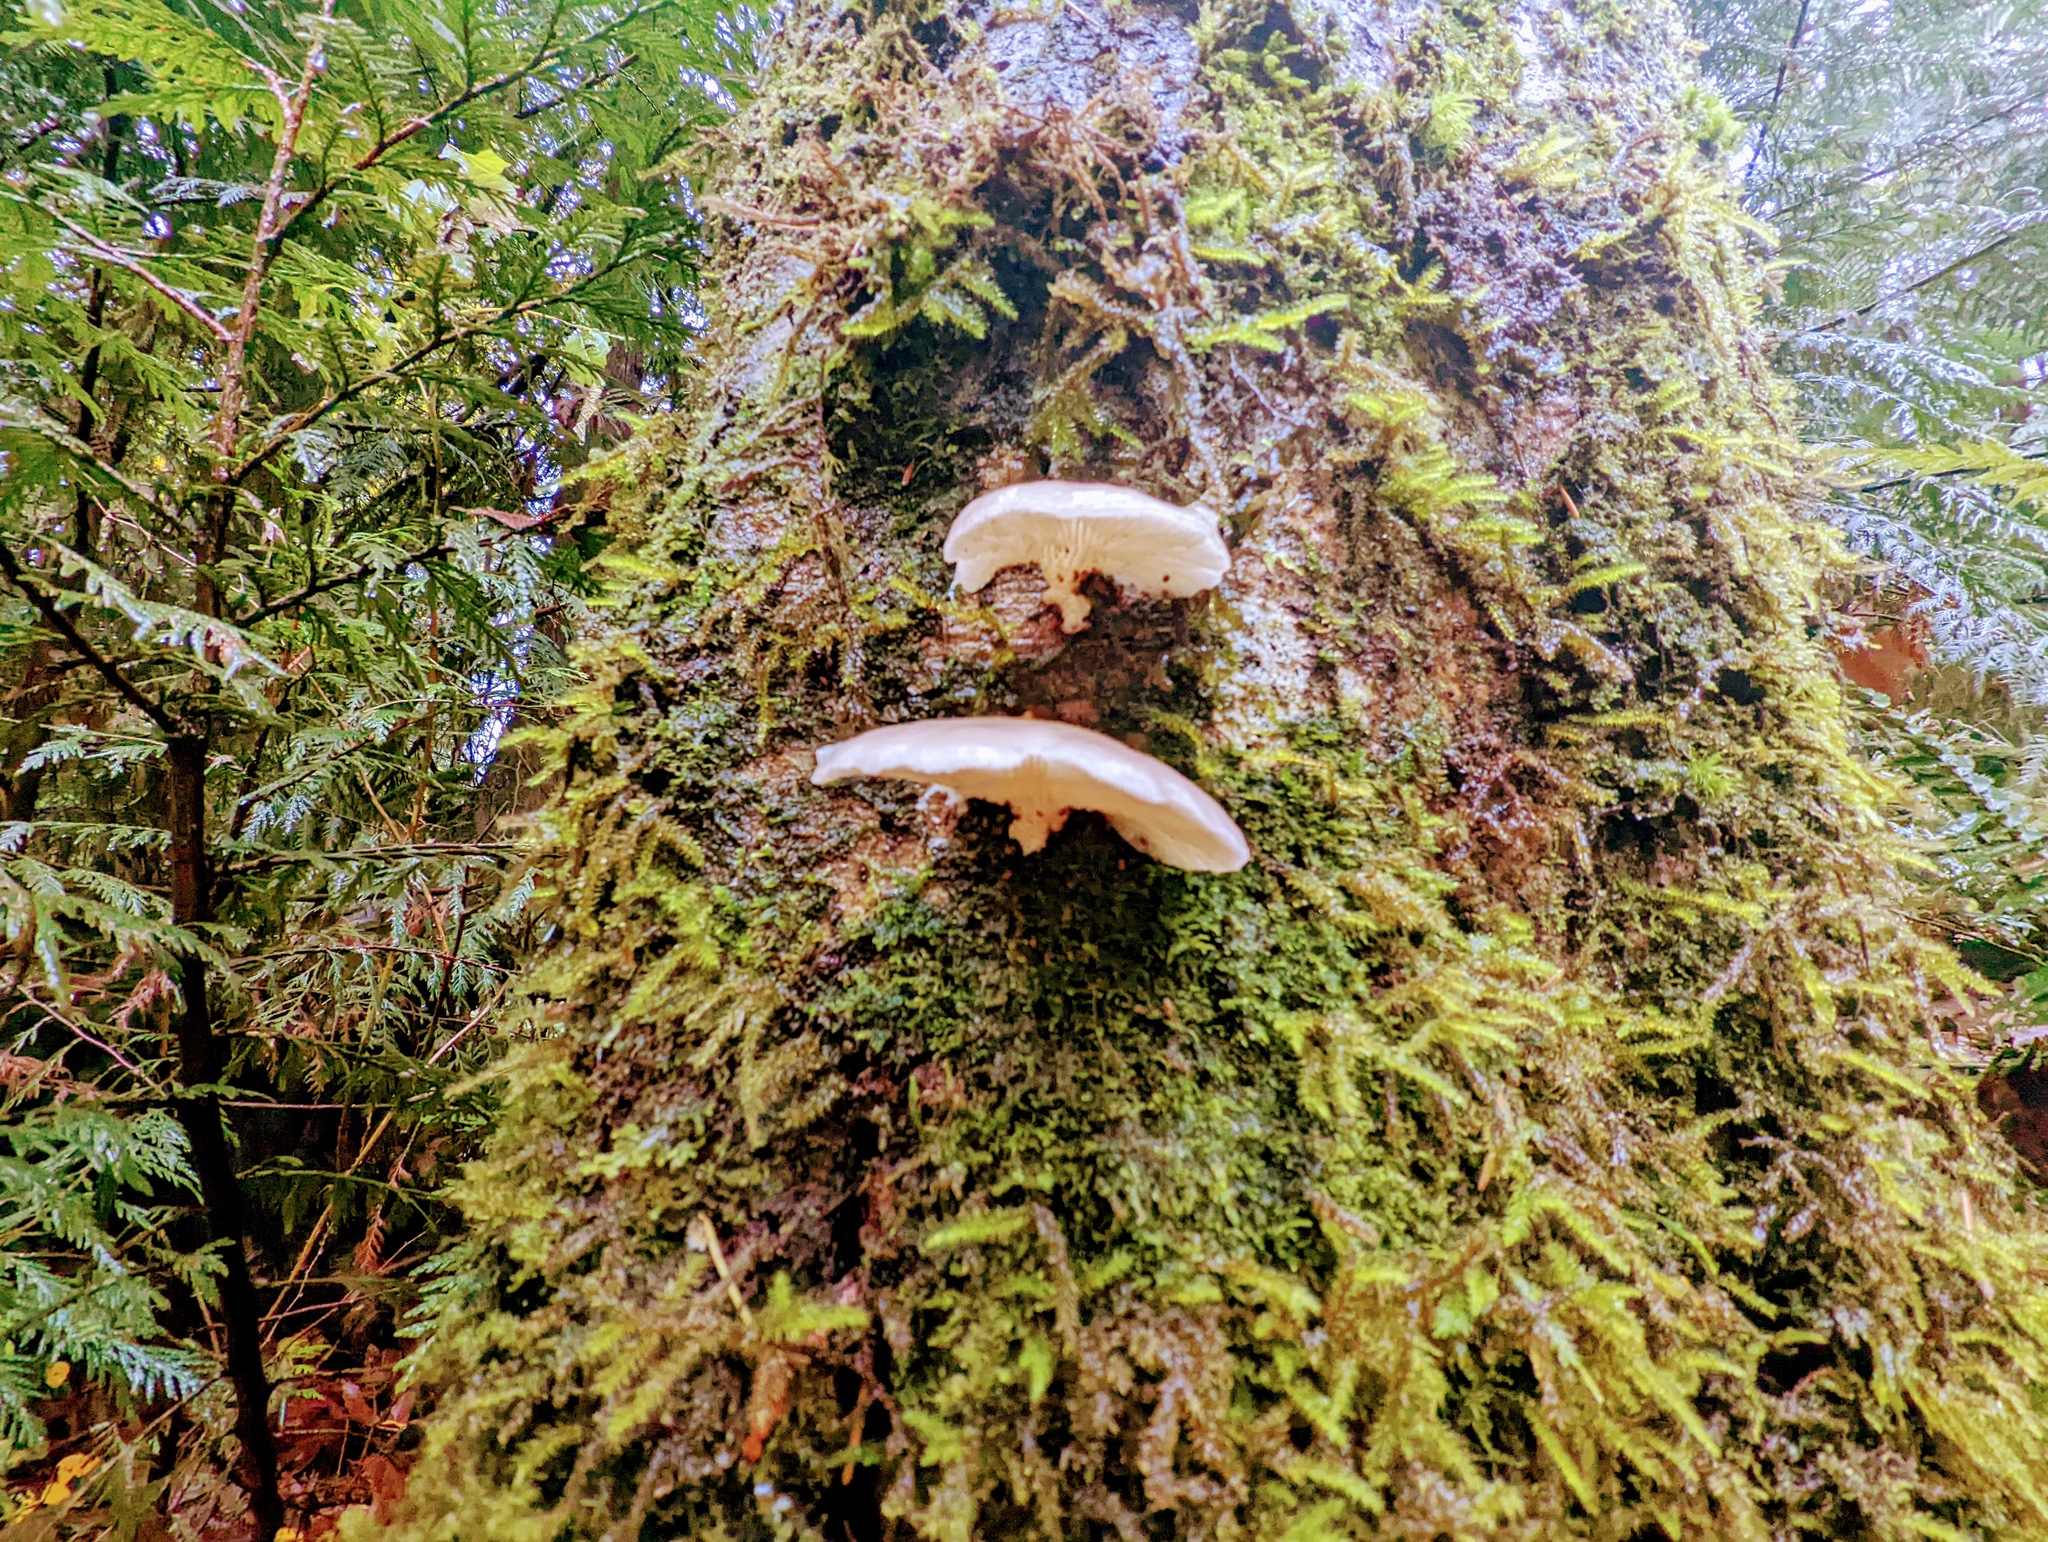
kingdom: Fungi
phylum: Basidiomycota
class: Agaricomycetes
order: Agaricales
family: Sarcomyxaceae
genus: Sarcomyxa
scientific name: Sarcomyxa serotina
